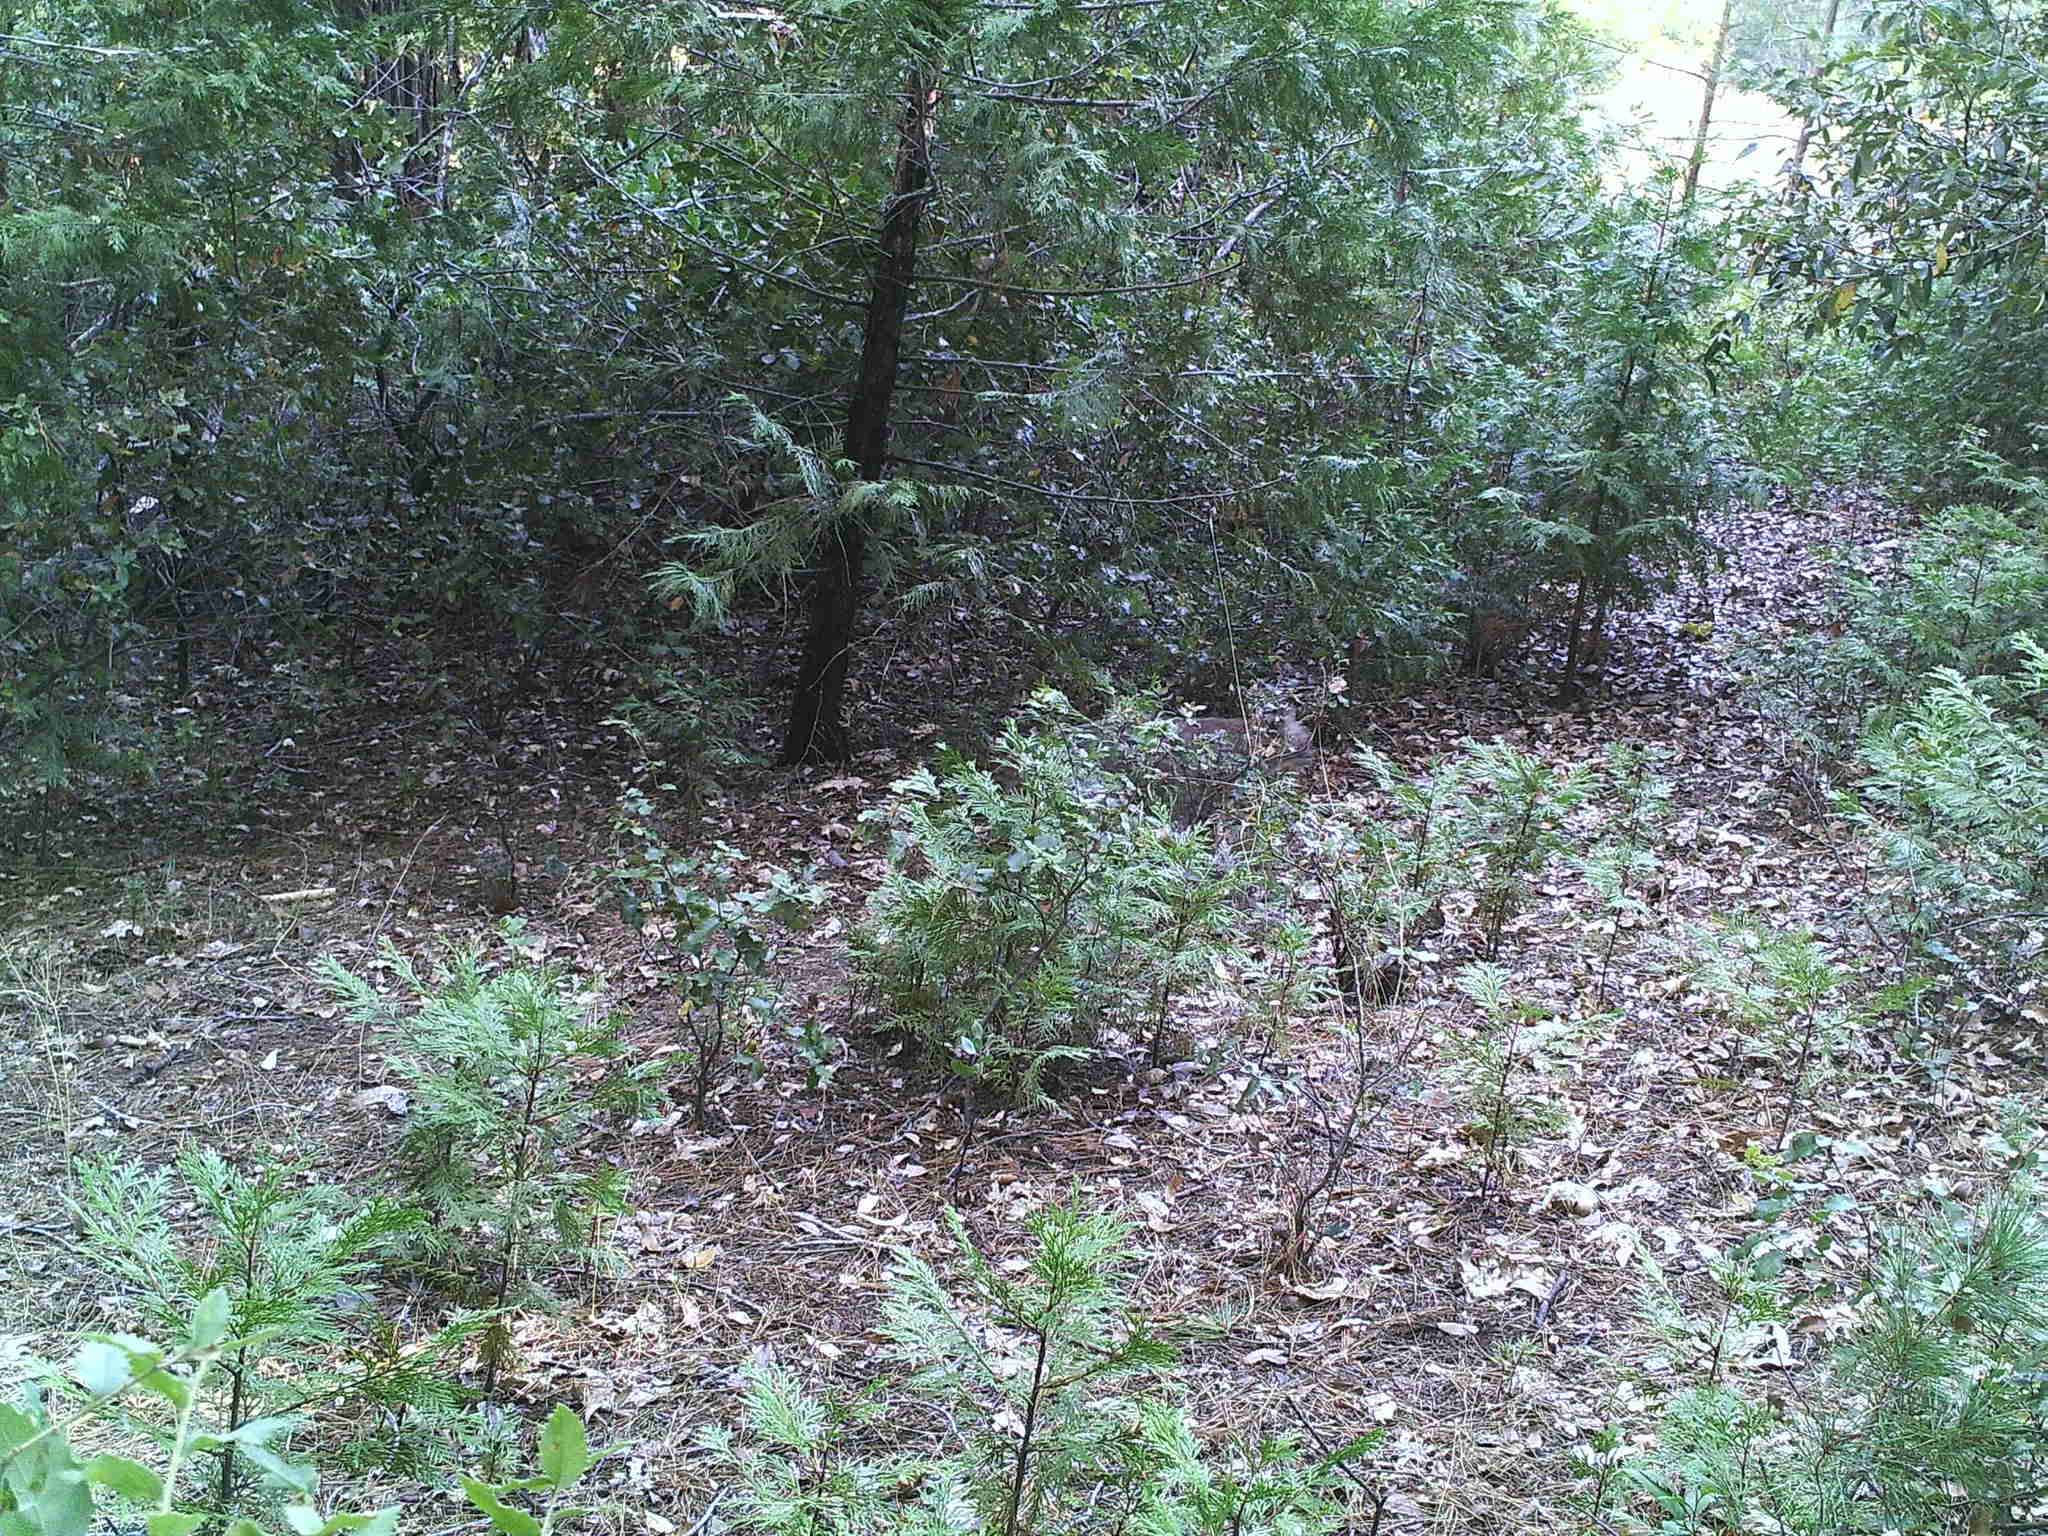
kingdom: Animalia
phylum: Chordata
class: Mammalia
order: Carnivora
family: Felidae
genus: Lynx
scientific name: Lynx rufus
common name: Bobcat
